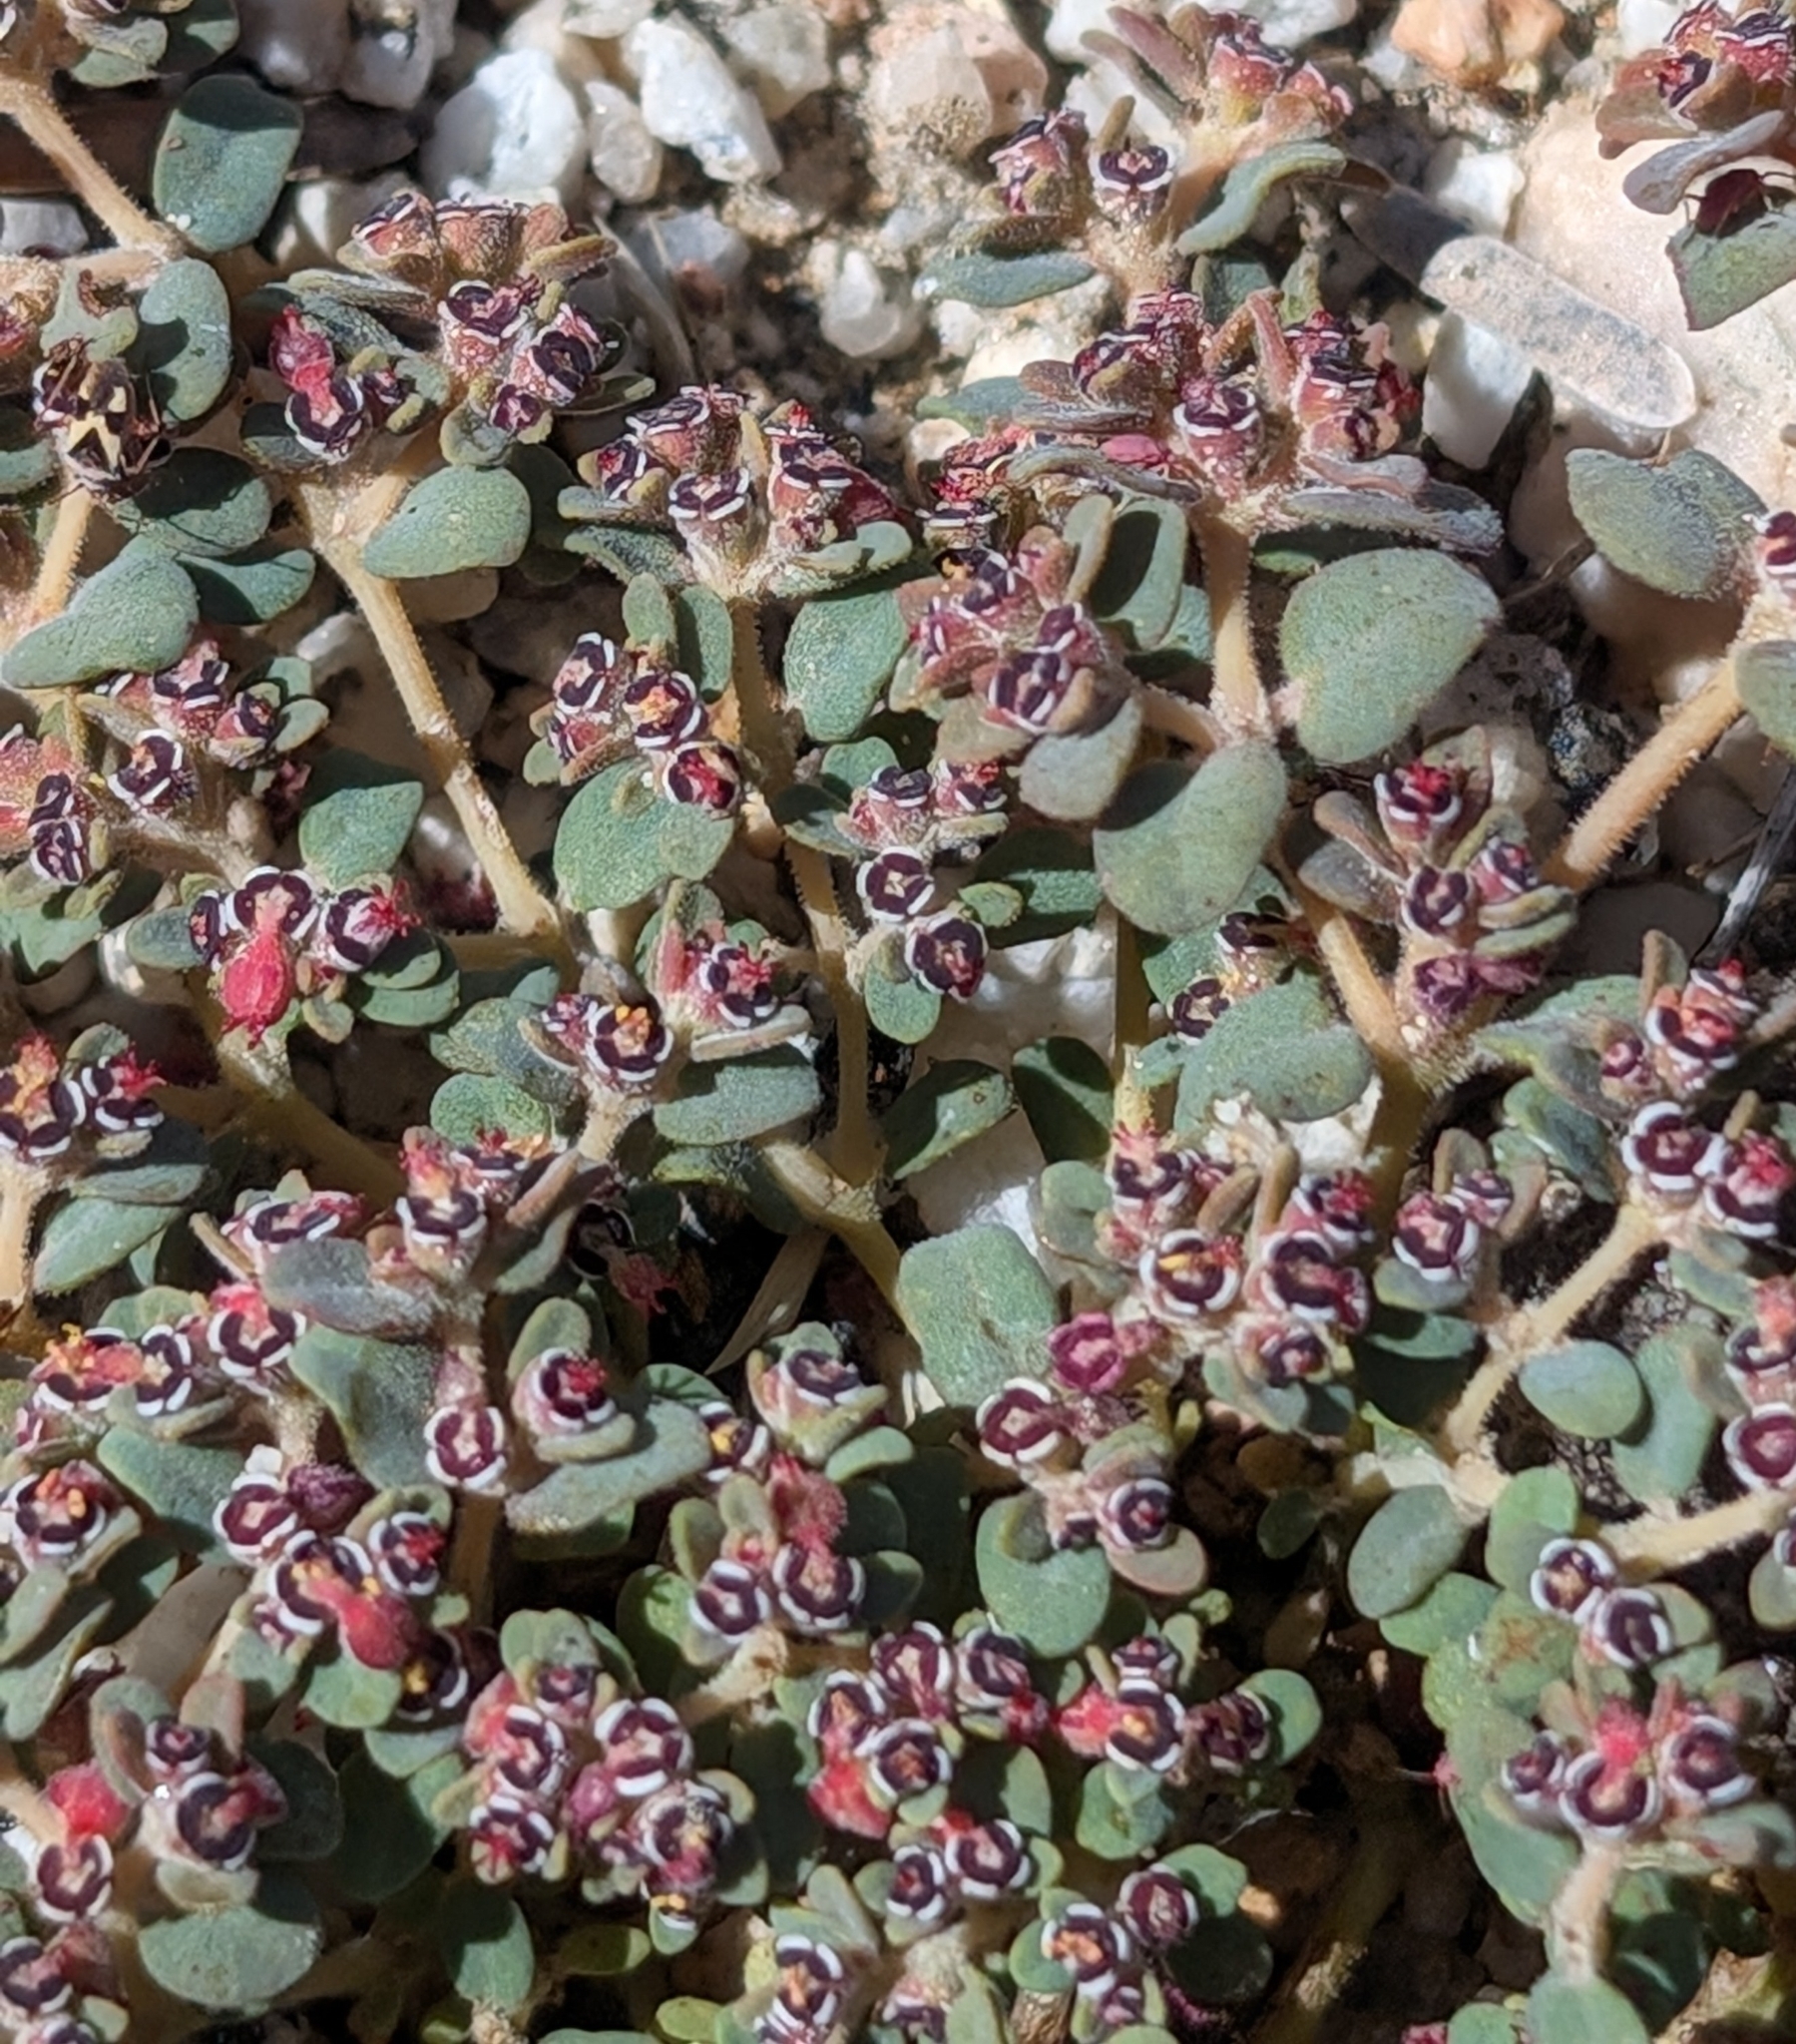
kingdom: Plantae
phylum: Tracheophyta
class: Magnoliopsida
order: Malpighiales
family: Euphorbiaceae
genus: Euphorbia
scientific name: Euphorbia polycarpa
